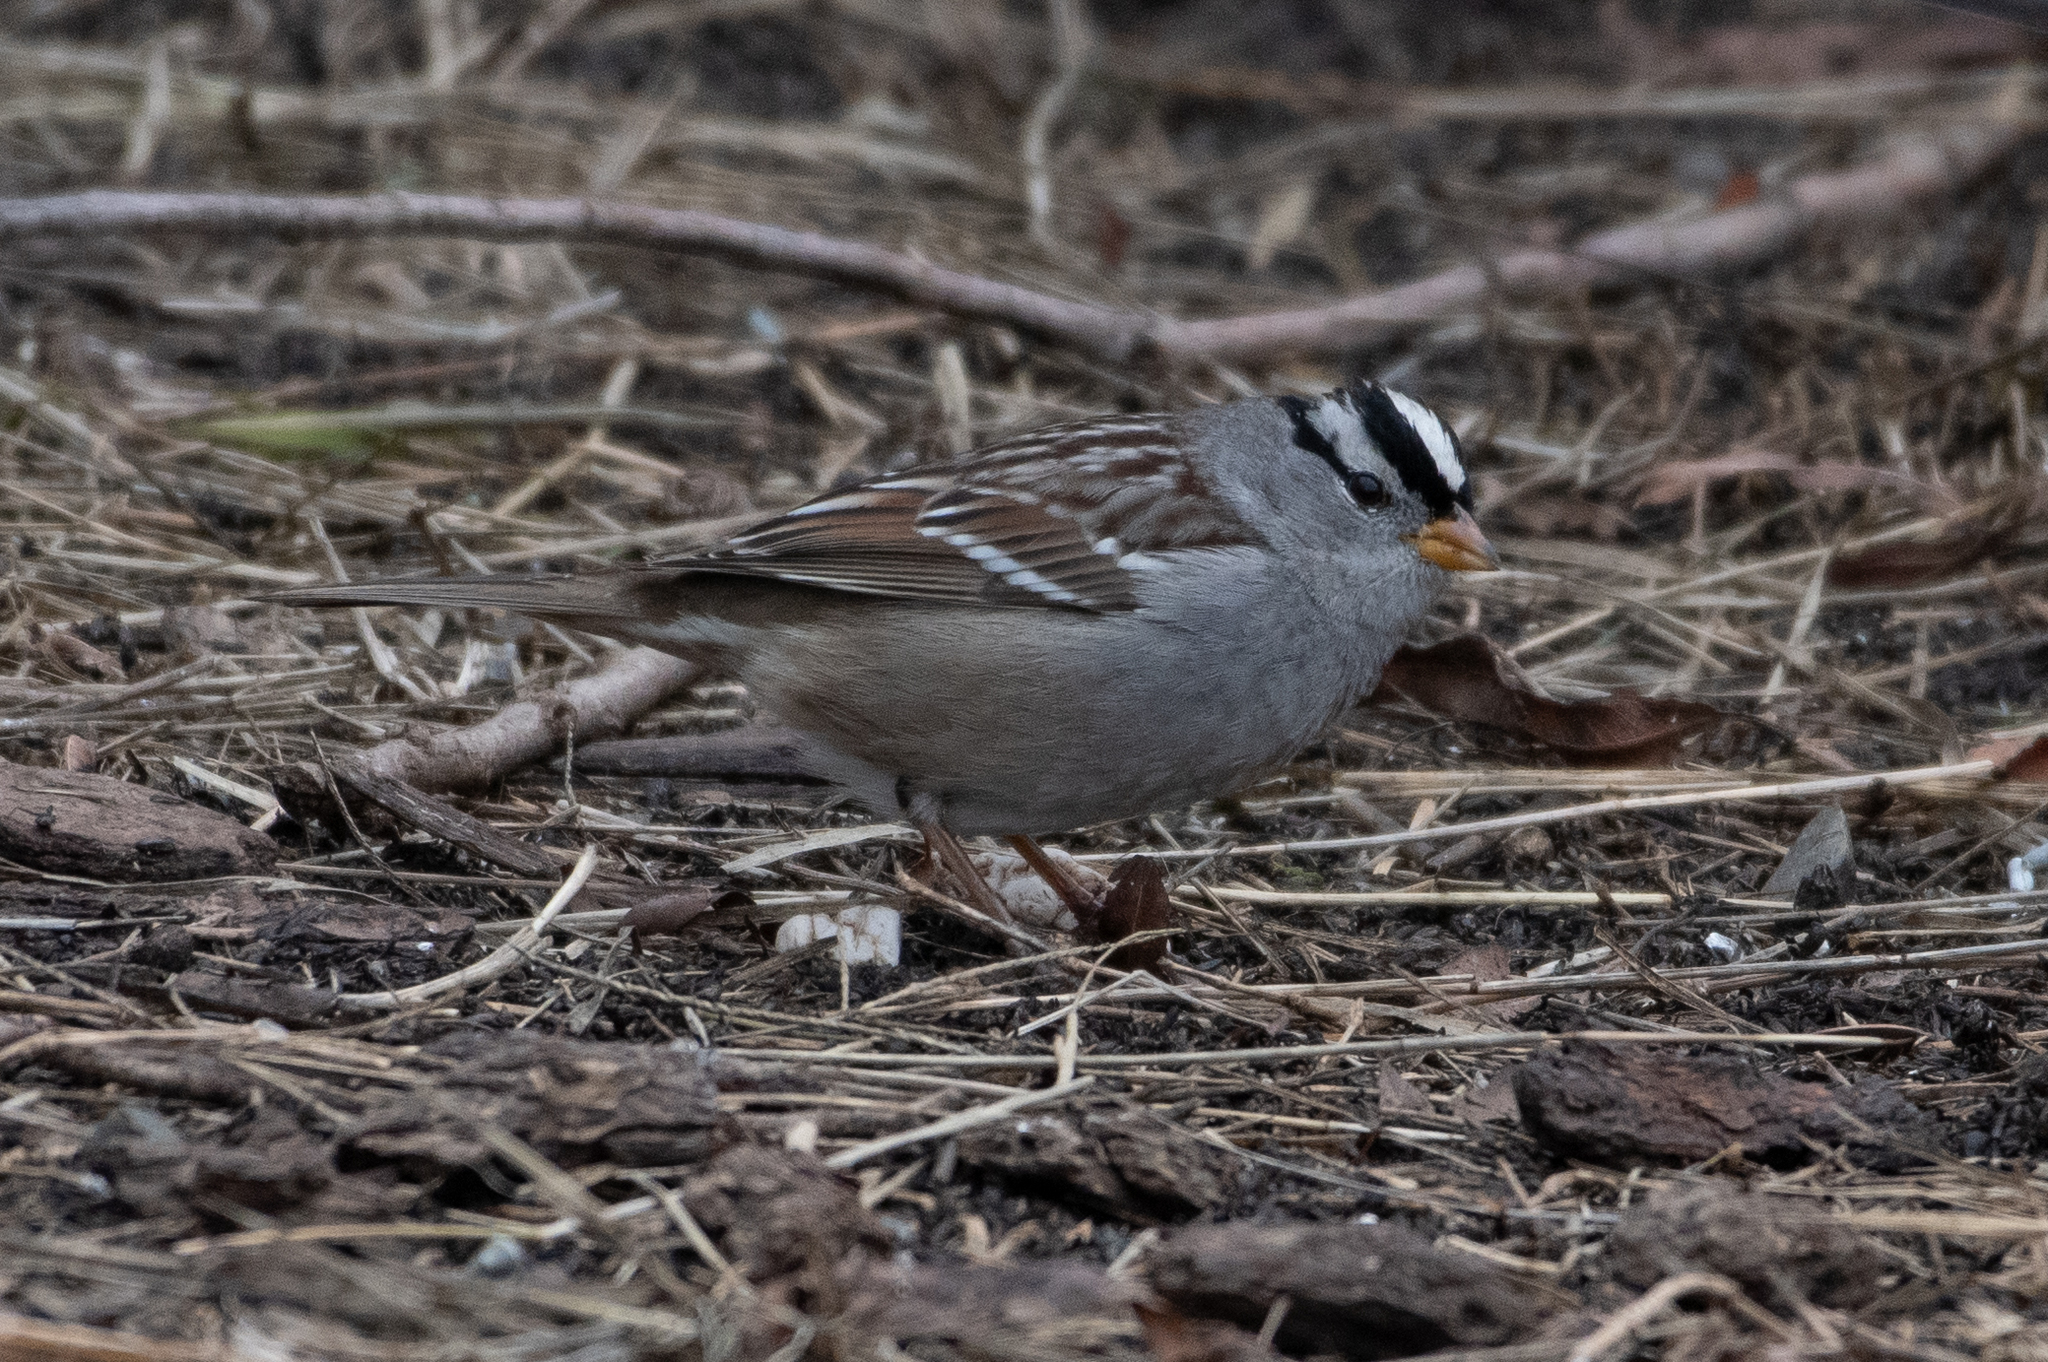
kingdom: Animalia
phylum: Chordata
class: Aves
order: Passeriformes
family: Passerellidae
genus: Zonotrichia
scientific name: Zonotrichia leucophrys
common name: White-crowned sparrow
